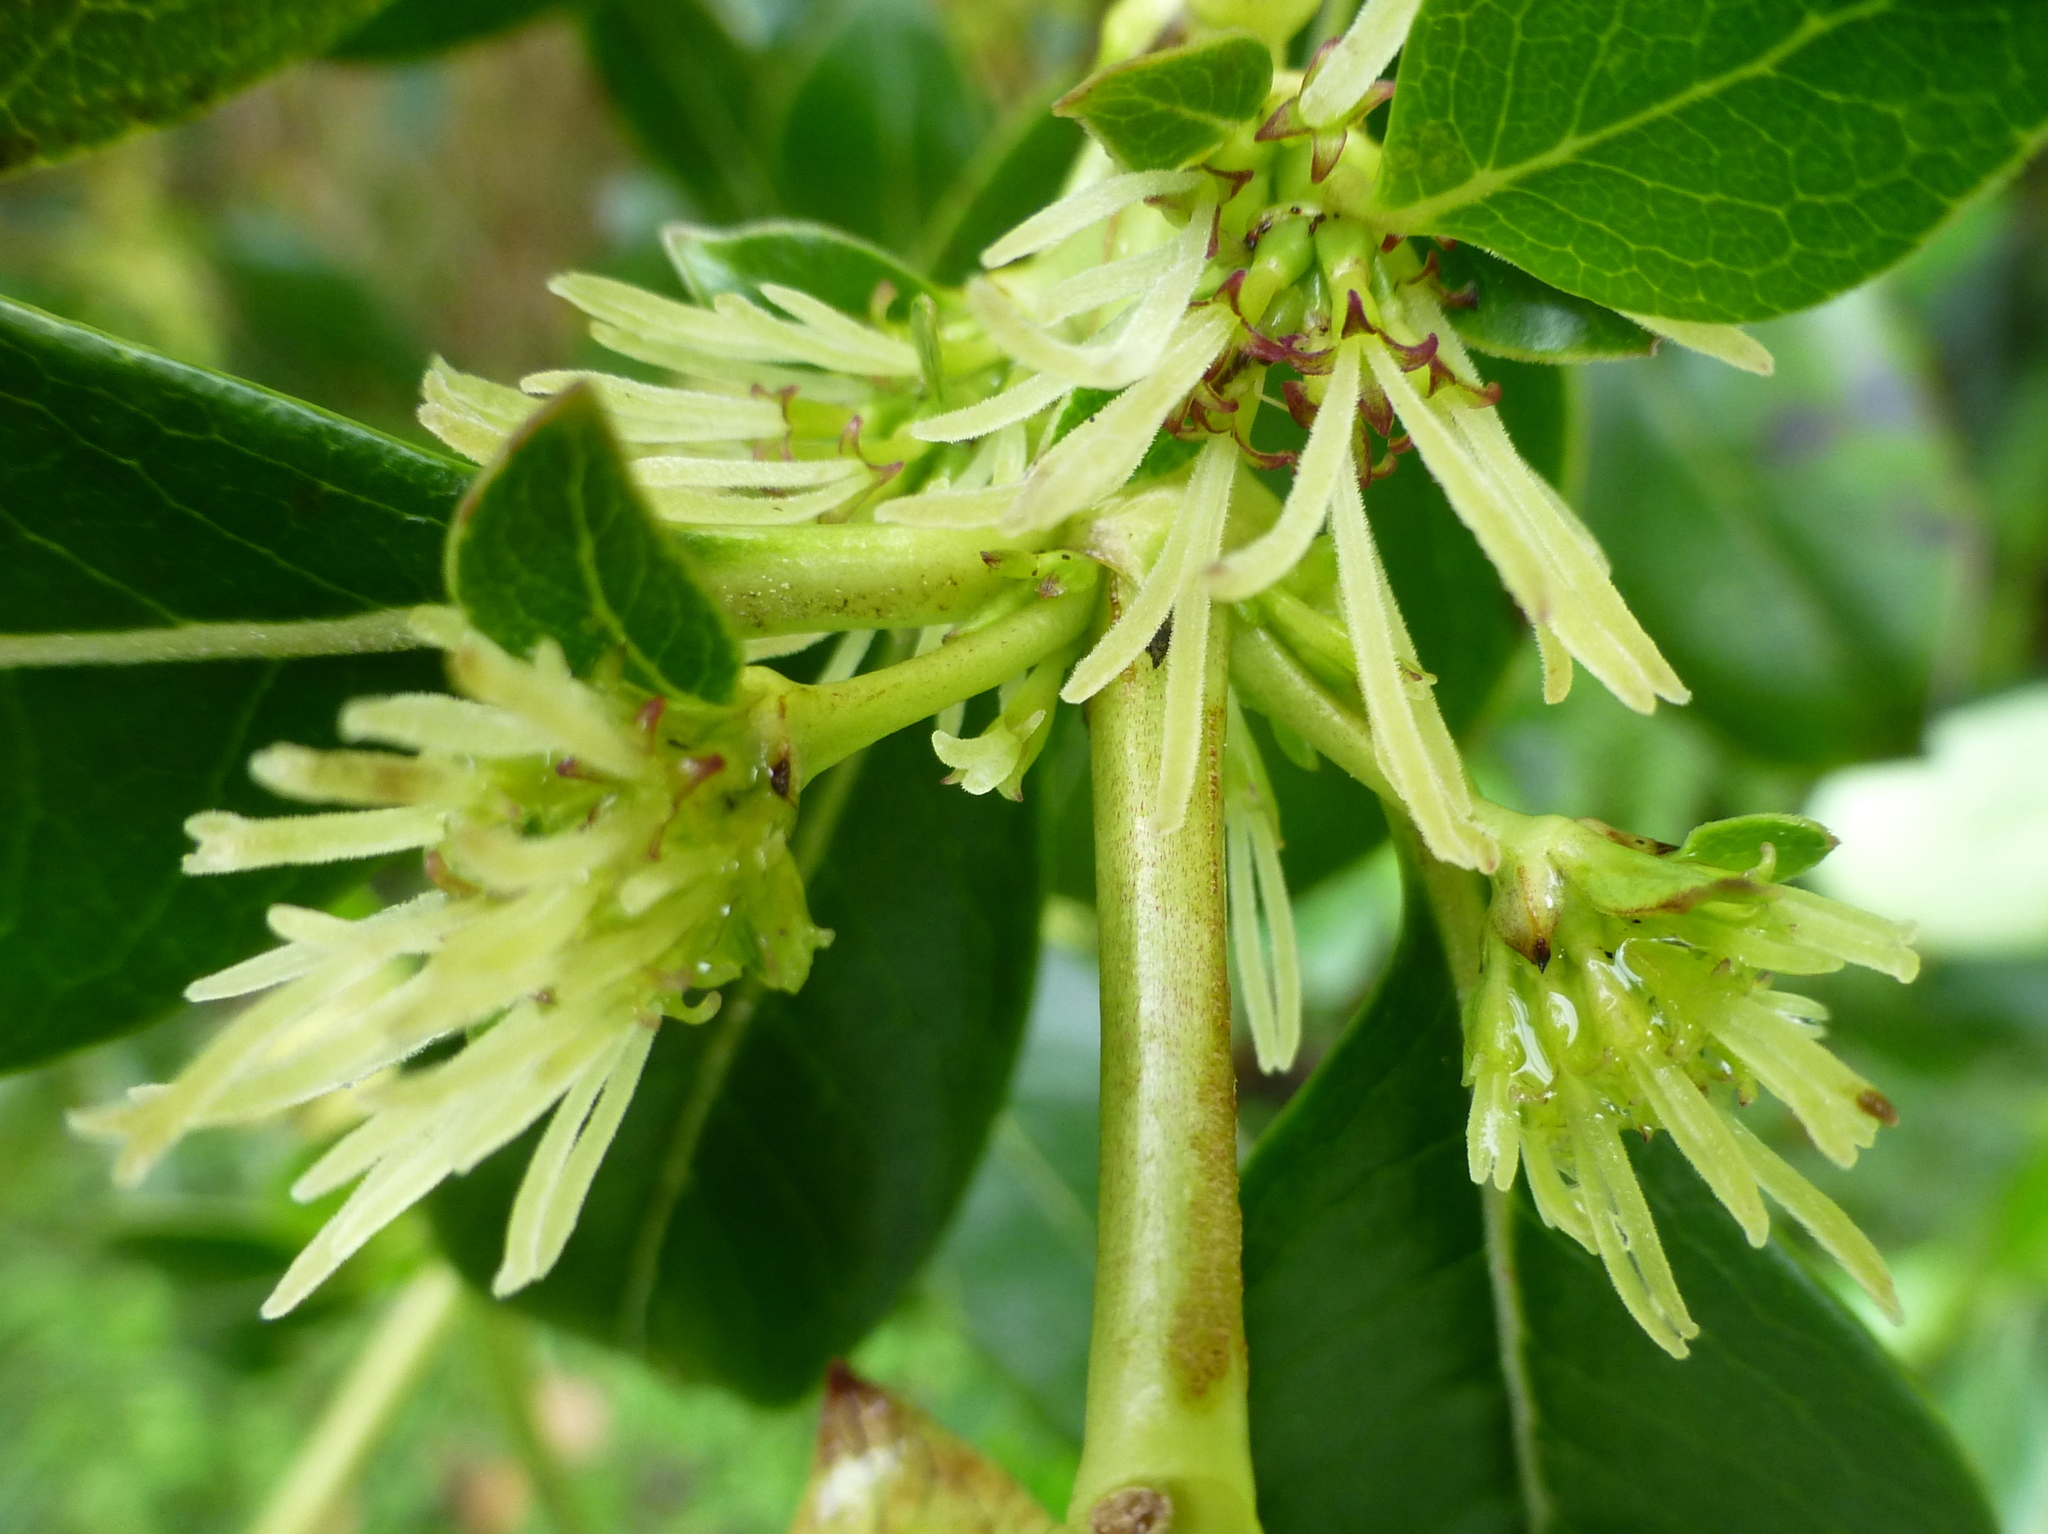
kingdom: Plantae
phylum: Tracheophyta
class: Magnoliopsida
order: Gentianales
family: Rubiaceae
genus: Coprosma
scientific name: Coprosma robusta
